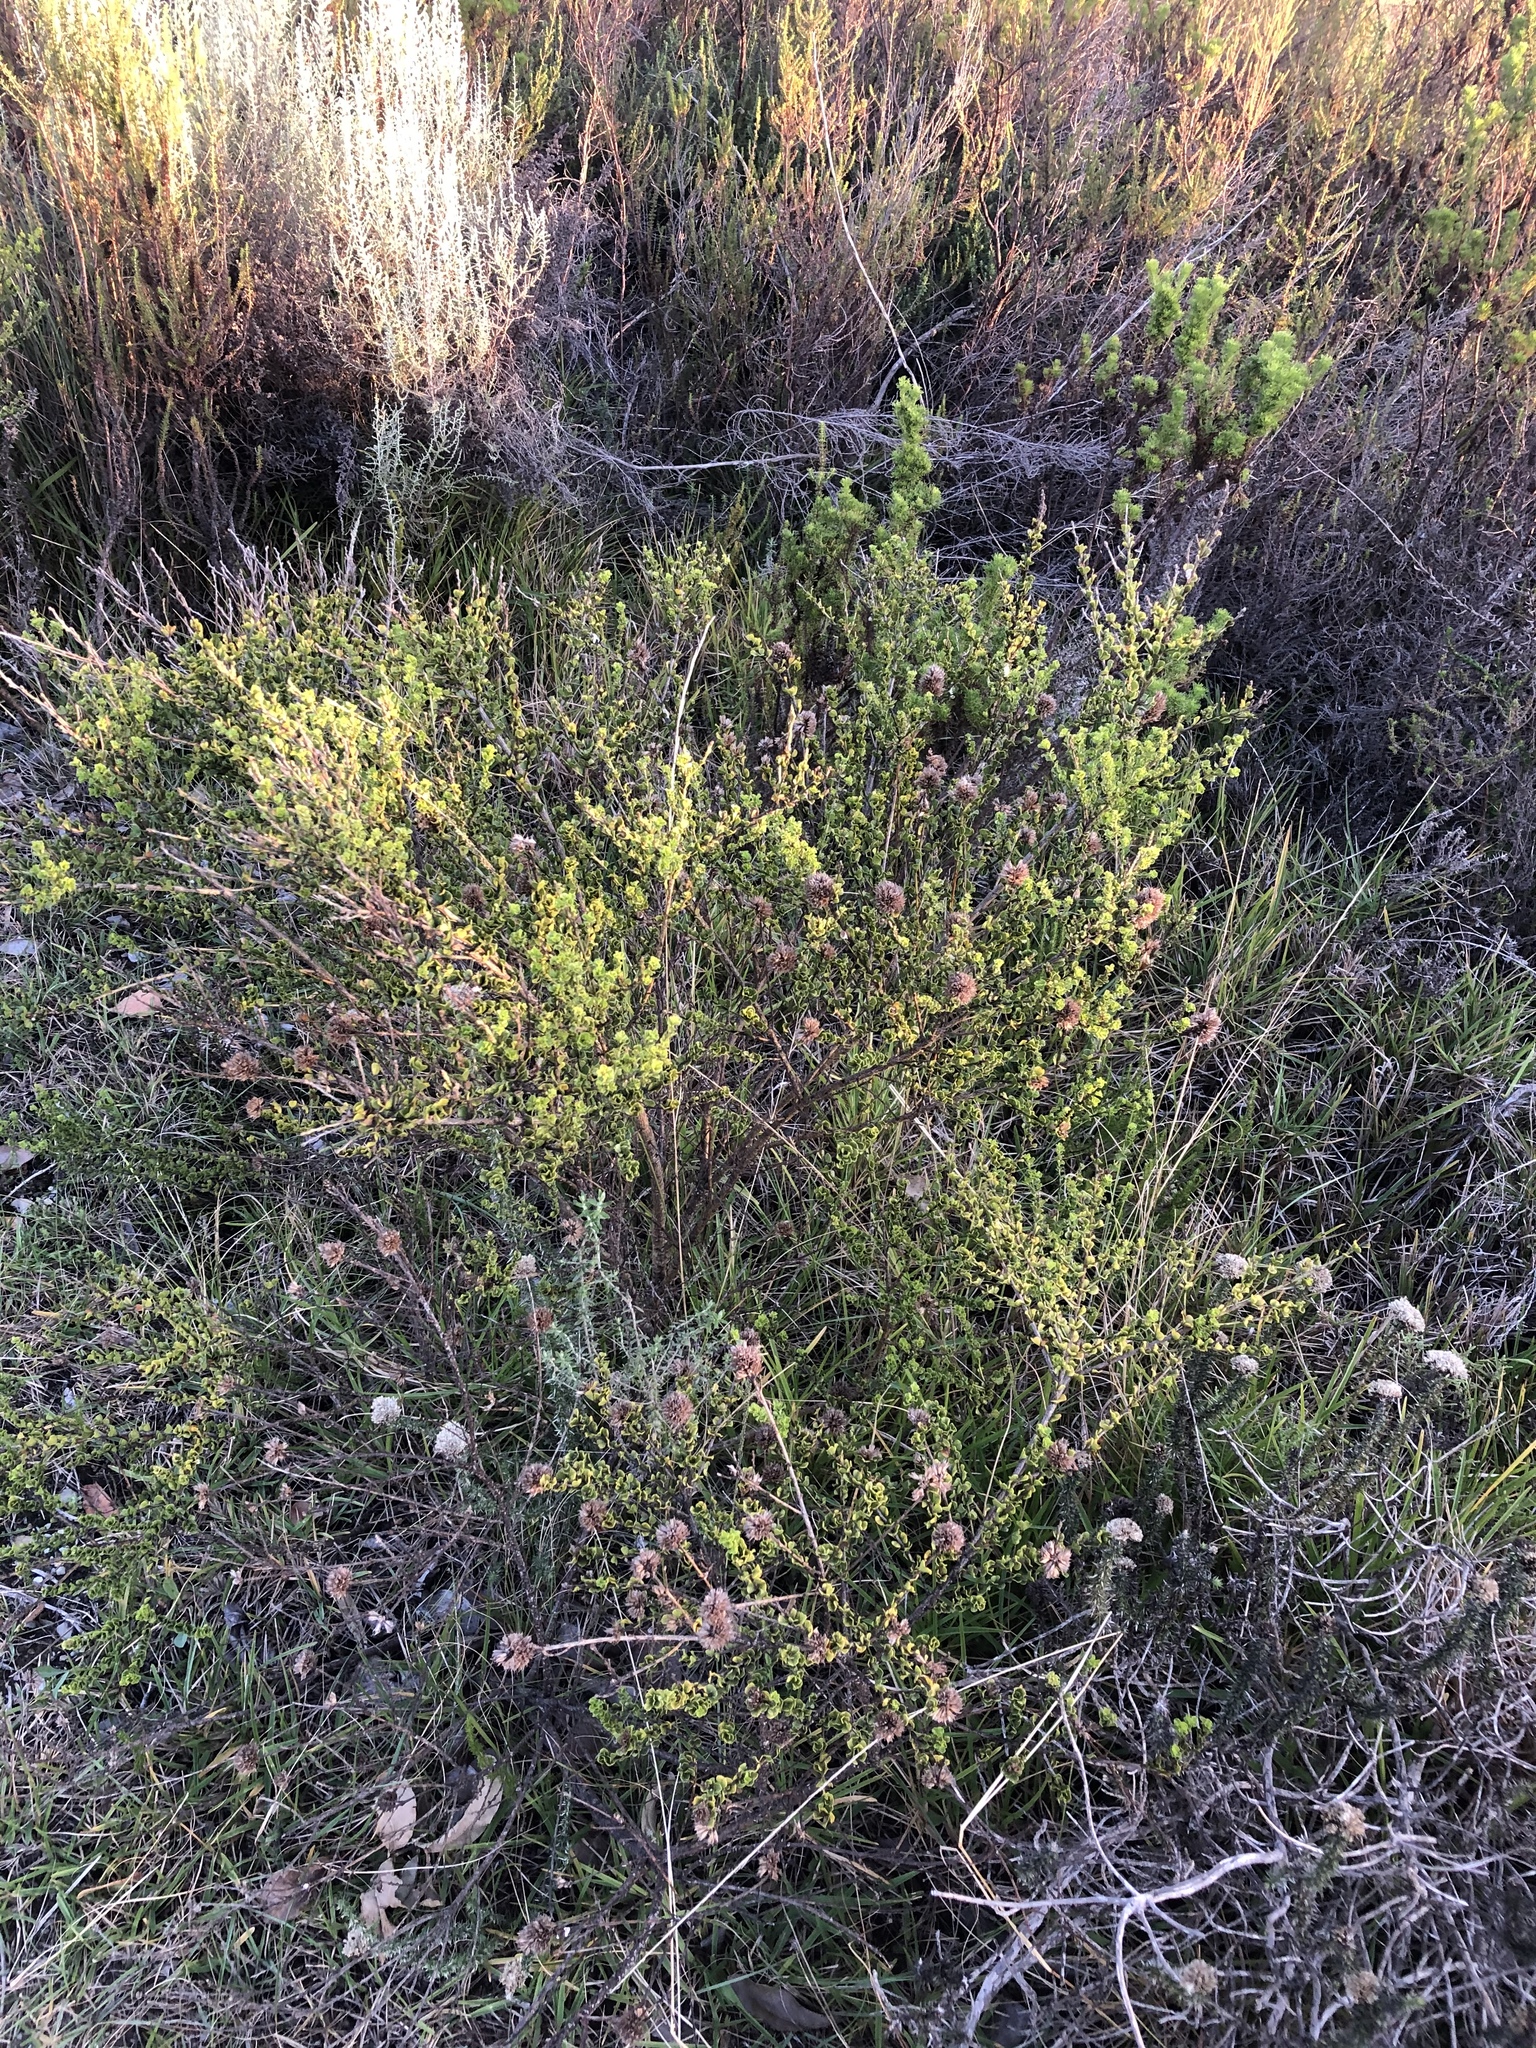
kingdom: Plantae
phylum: Tracheophyta
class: Magnoliopsida
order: Fabales
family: Fabaceae
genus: Psoralea
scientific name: Psoralea acuminata
